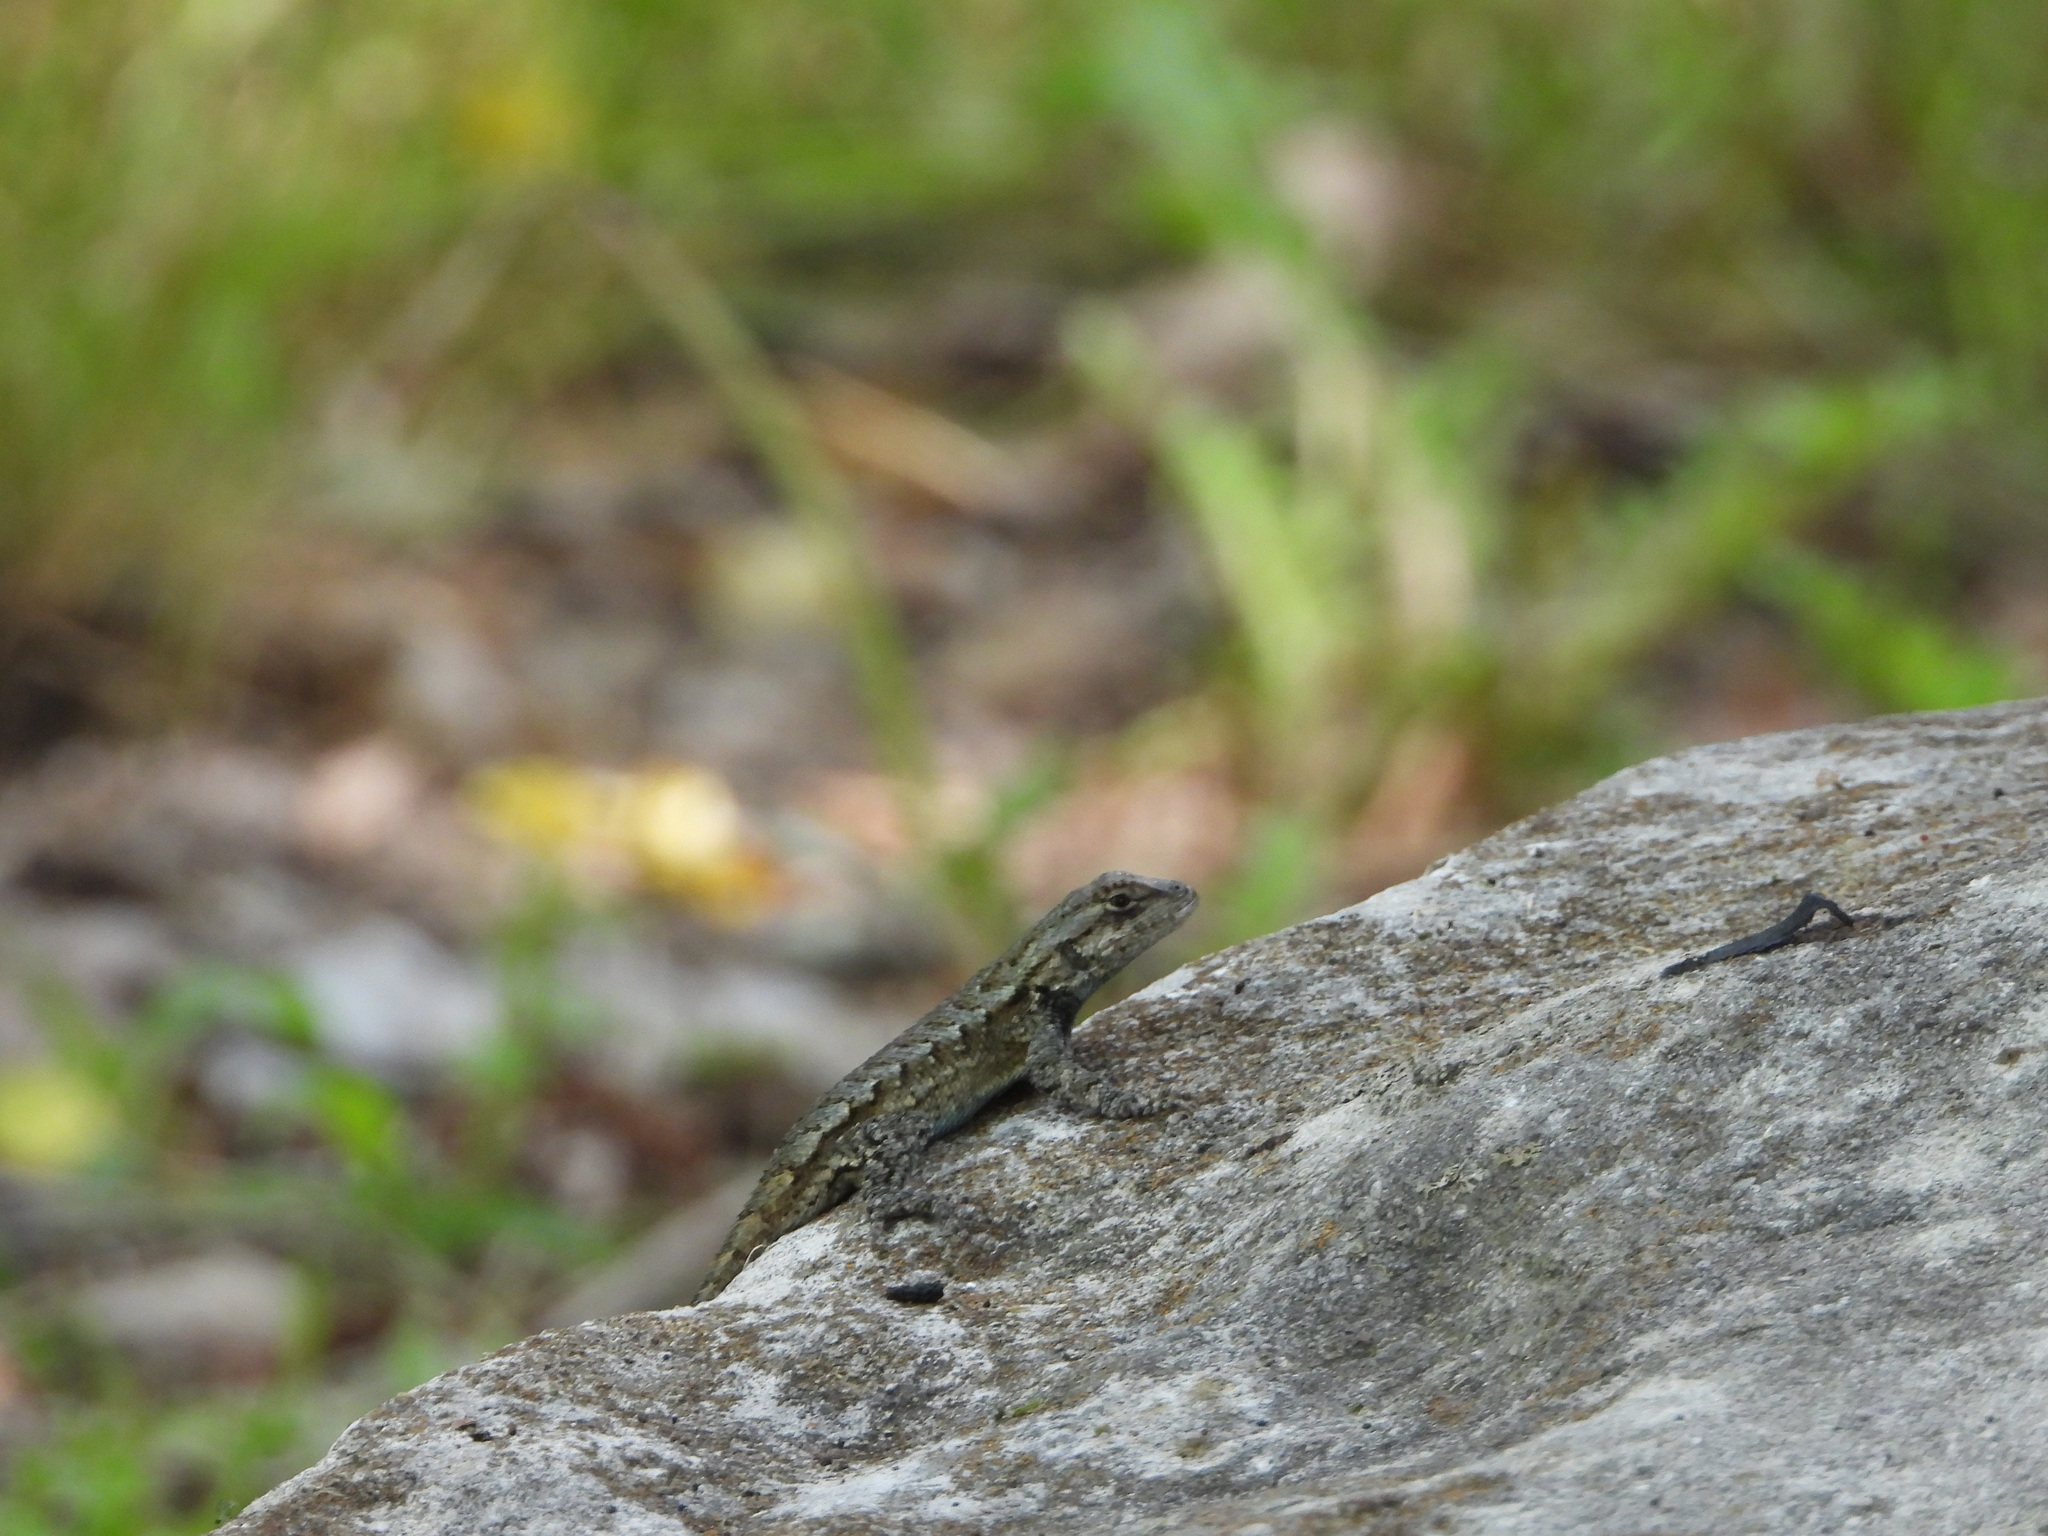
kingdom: Animalia
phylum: Chordata
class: Squamata
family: Phrynosomatidae
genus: Sceloporus
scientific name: Sceloporus undulatus
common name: Eastern fence lizard
